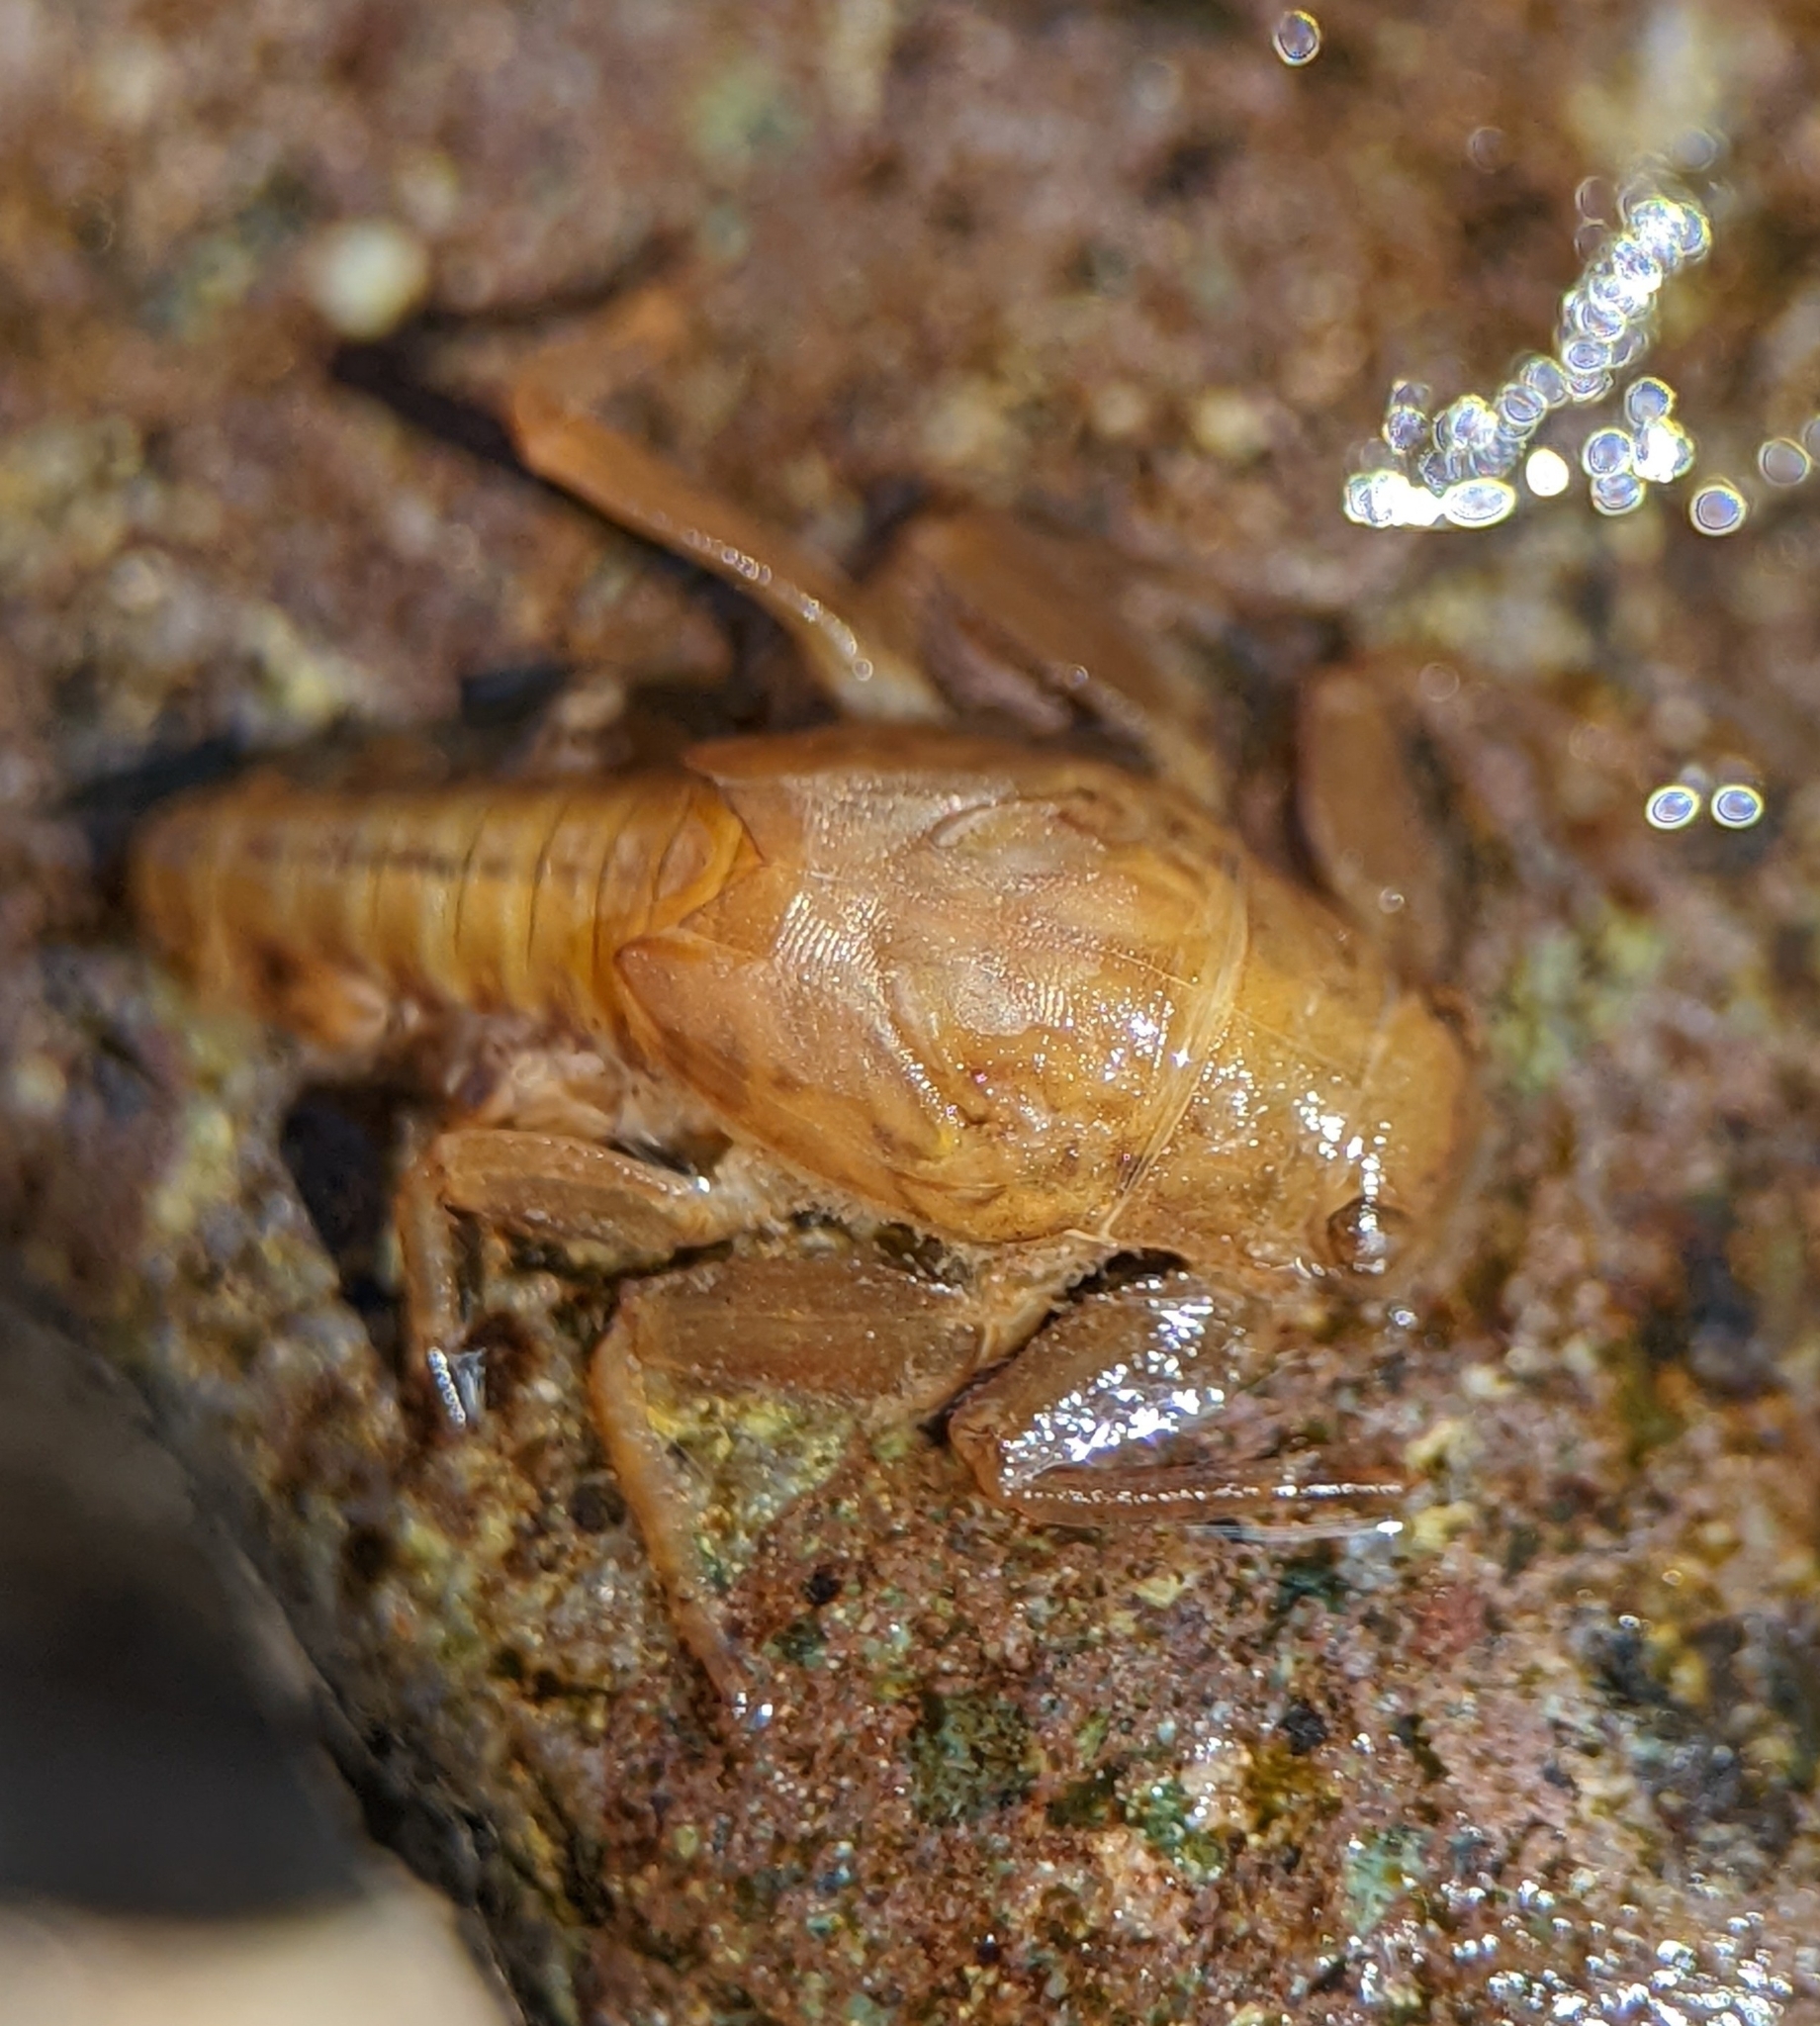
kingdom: Animalia
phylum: Arthropoda
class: Insecta
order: Ephemeroptera
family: Ephemerellidae
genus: Drunella
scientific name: Drunella doddsi
